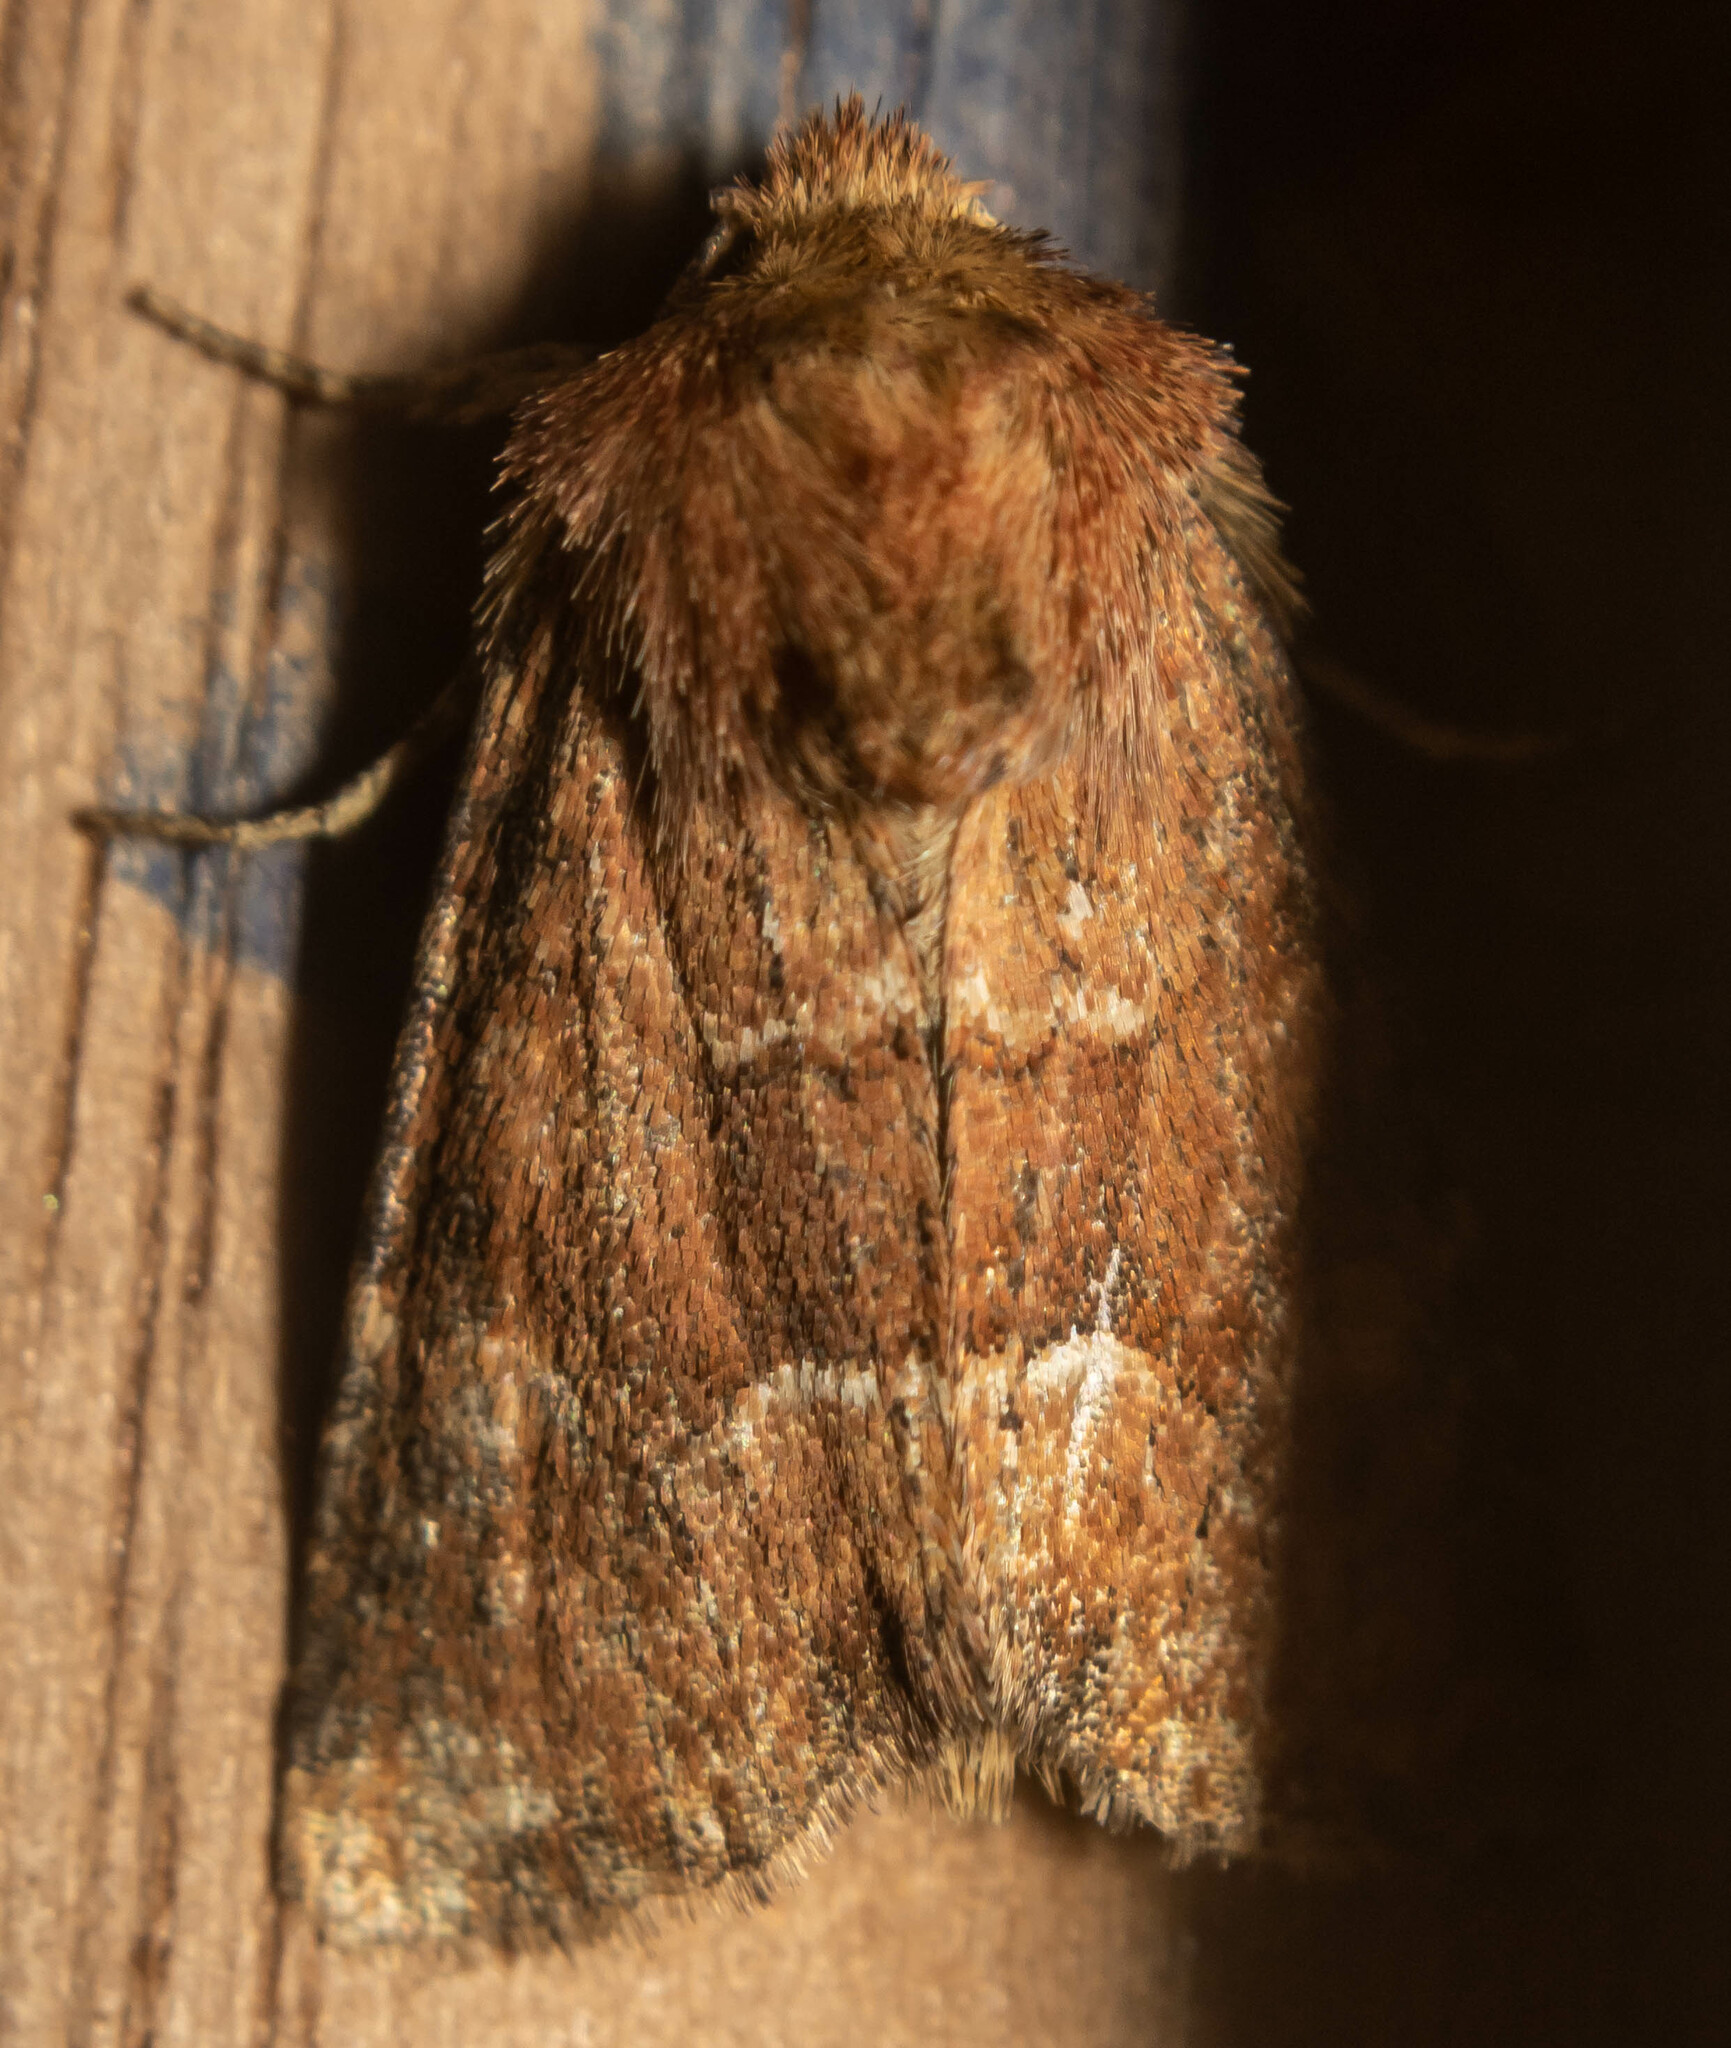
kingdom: Animalia
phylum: Arthropoda
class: Insecta
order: Lepidoptera
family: Noctuidae
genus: Oligia
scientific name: Oligia fasciuncula
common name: Middle-barred minor
